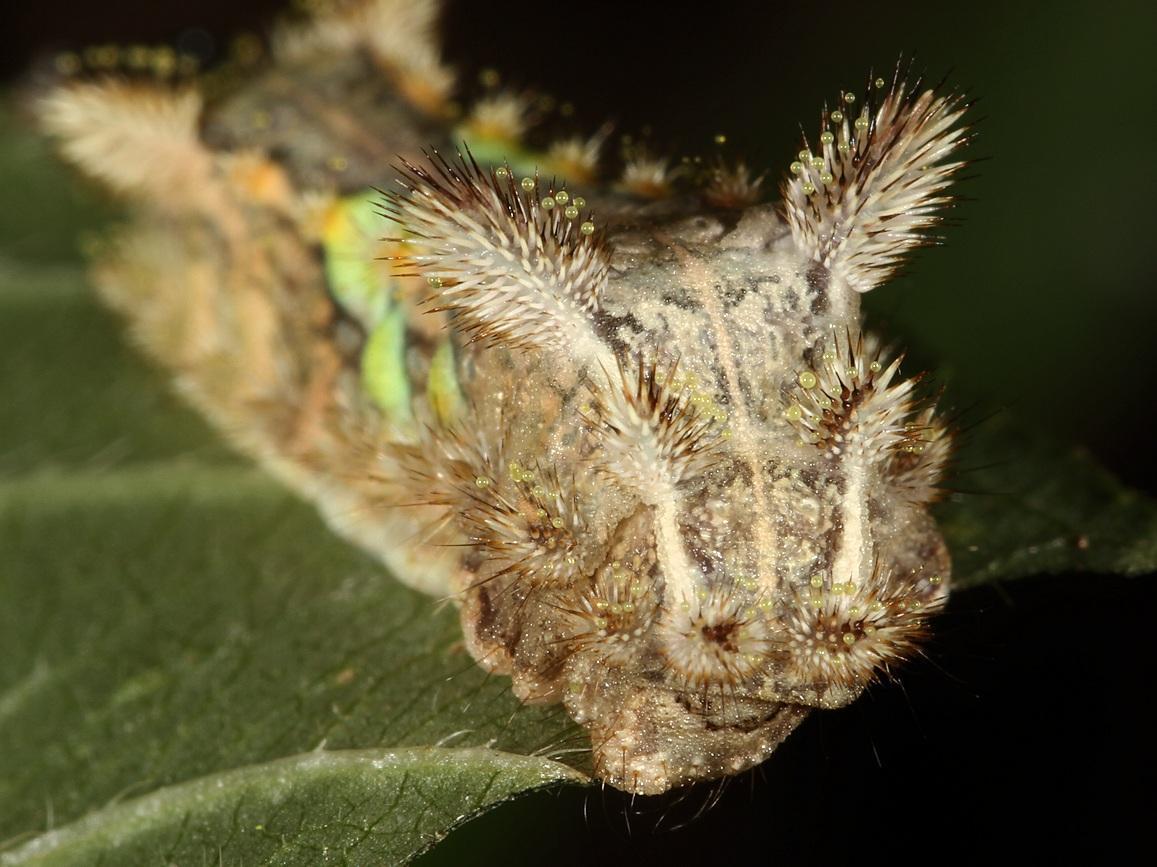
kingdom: Animalia
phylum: Arthropoda
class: Insecta
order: Lepidoptera
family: Limacodidae
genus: Neomocena
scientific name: Neomocena convergens
